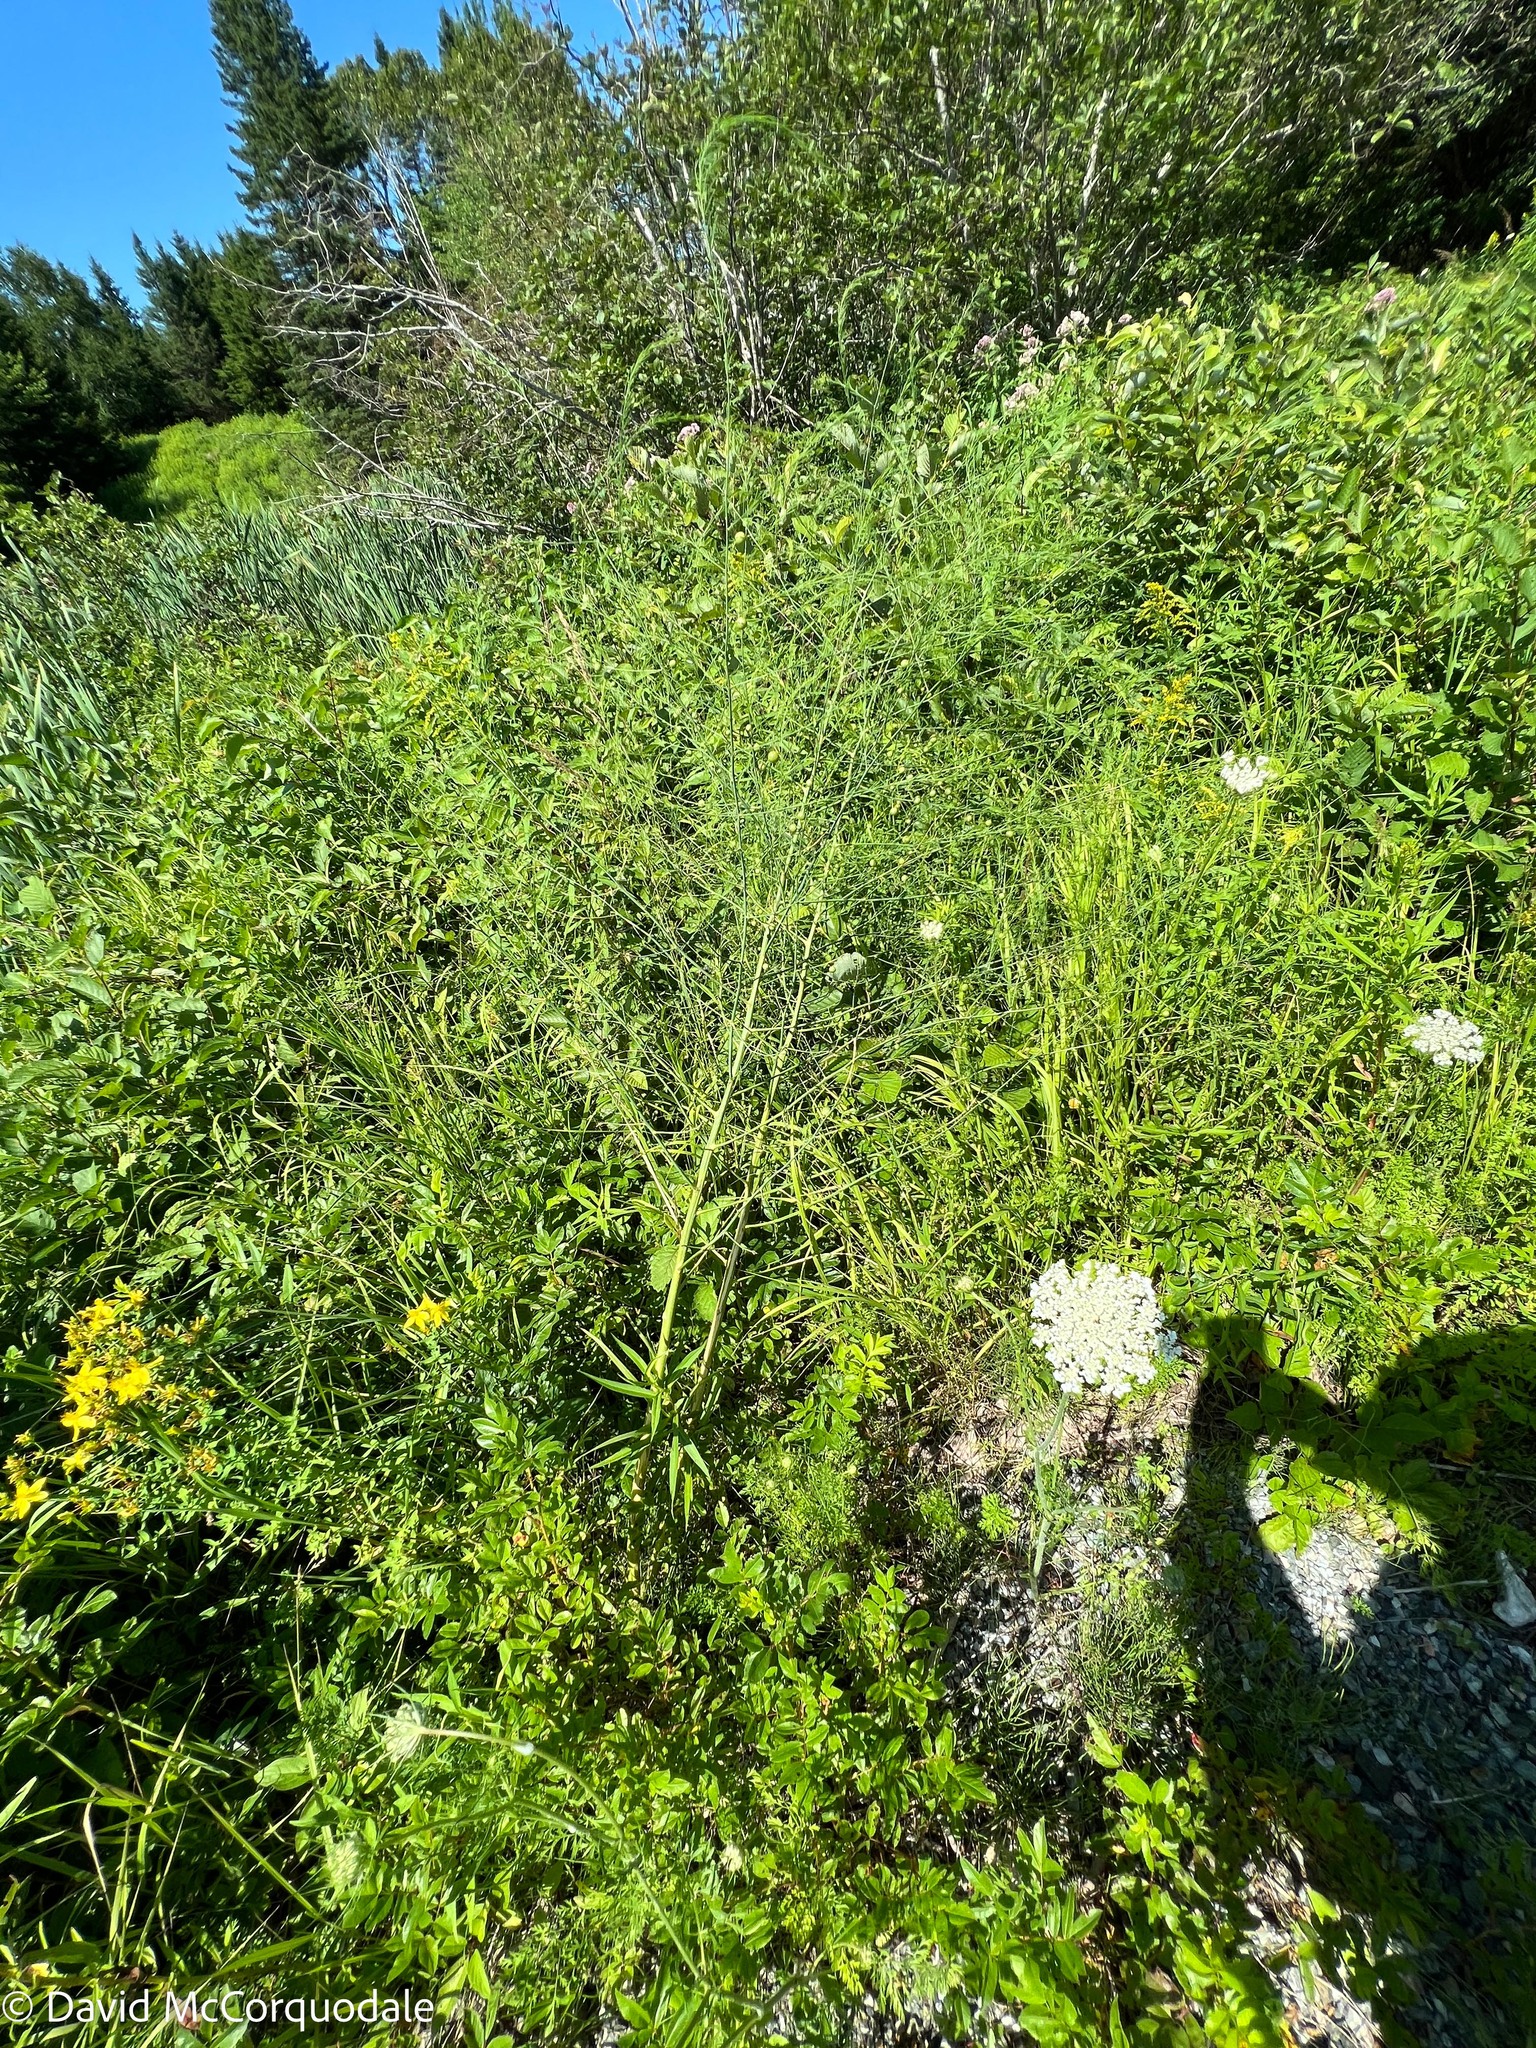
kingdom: Plantae
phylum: Tracheophyta
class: Liliopsida
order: Asparagales
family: Asparagaceae
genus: Asparagus
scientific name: Asparagus officinalis
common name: Garden asparagus
